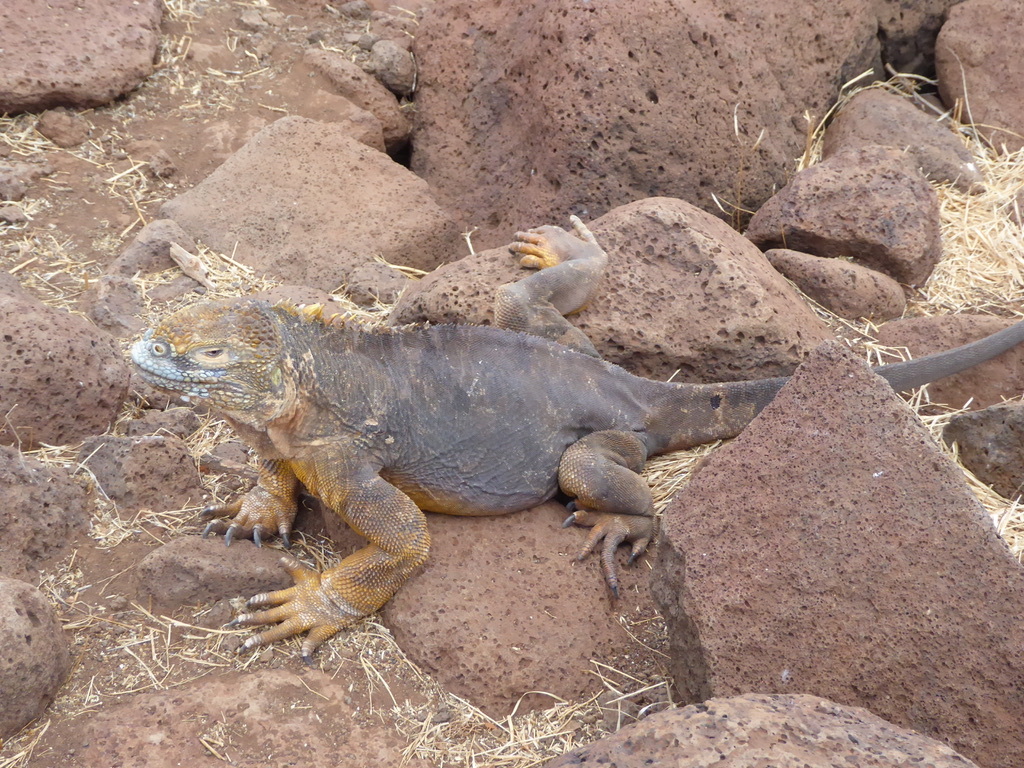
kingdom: Animalia
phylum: Chordata
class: Squamata
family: Iguanidae
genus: Conolophus
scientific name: Conolophus subcristatus
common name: Galapagos land iguana
